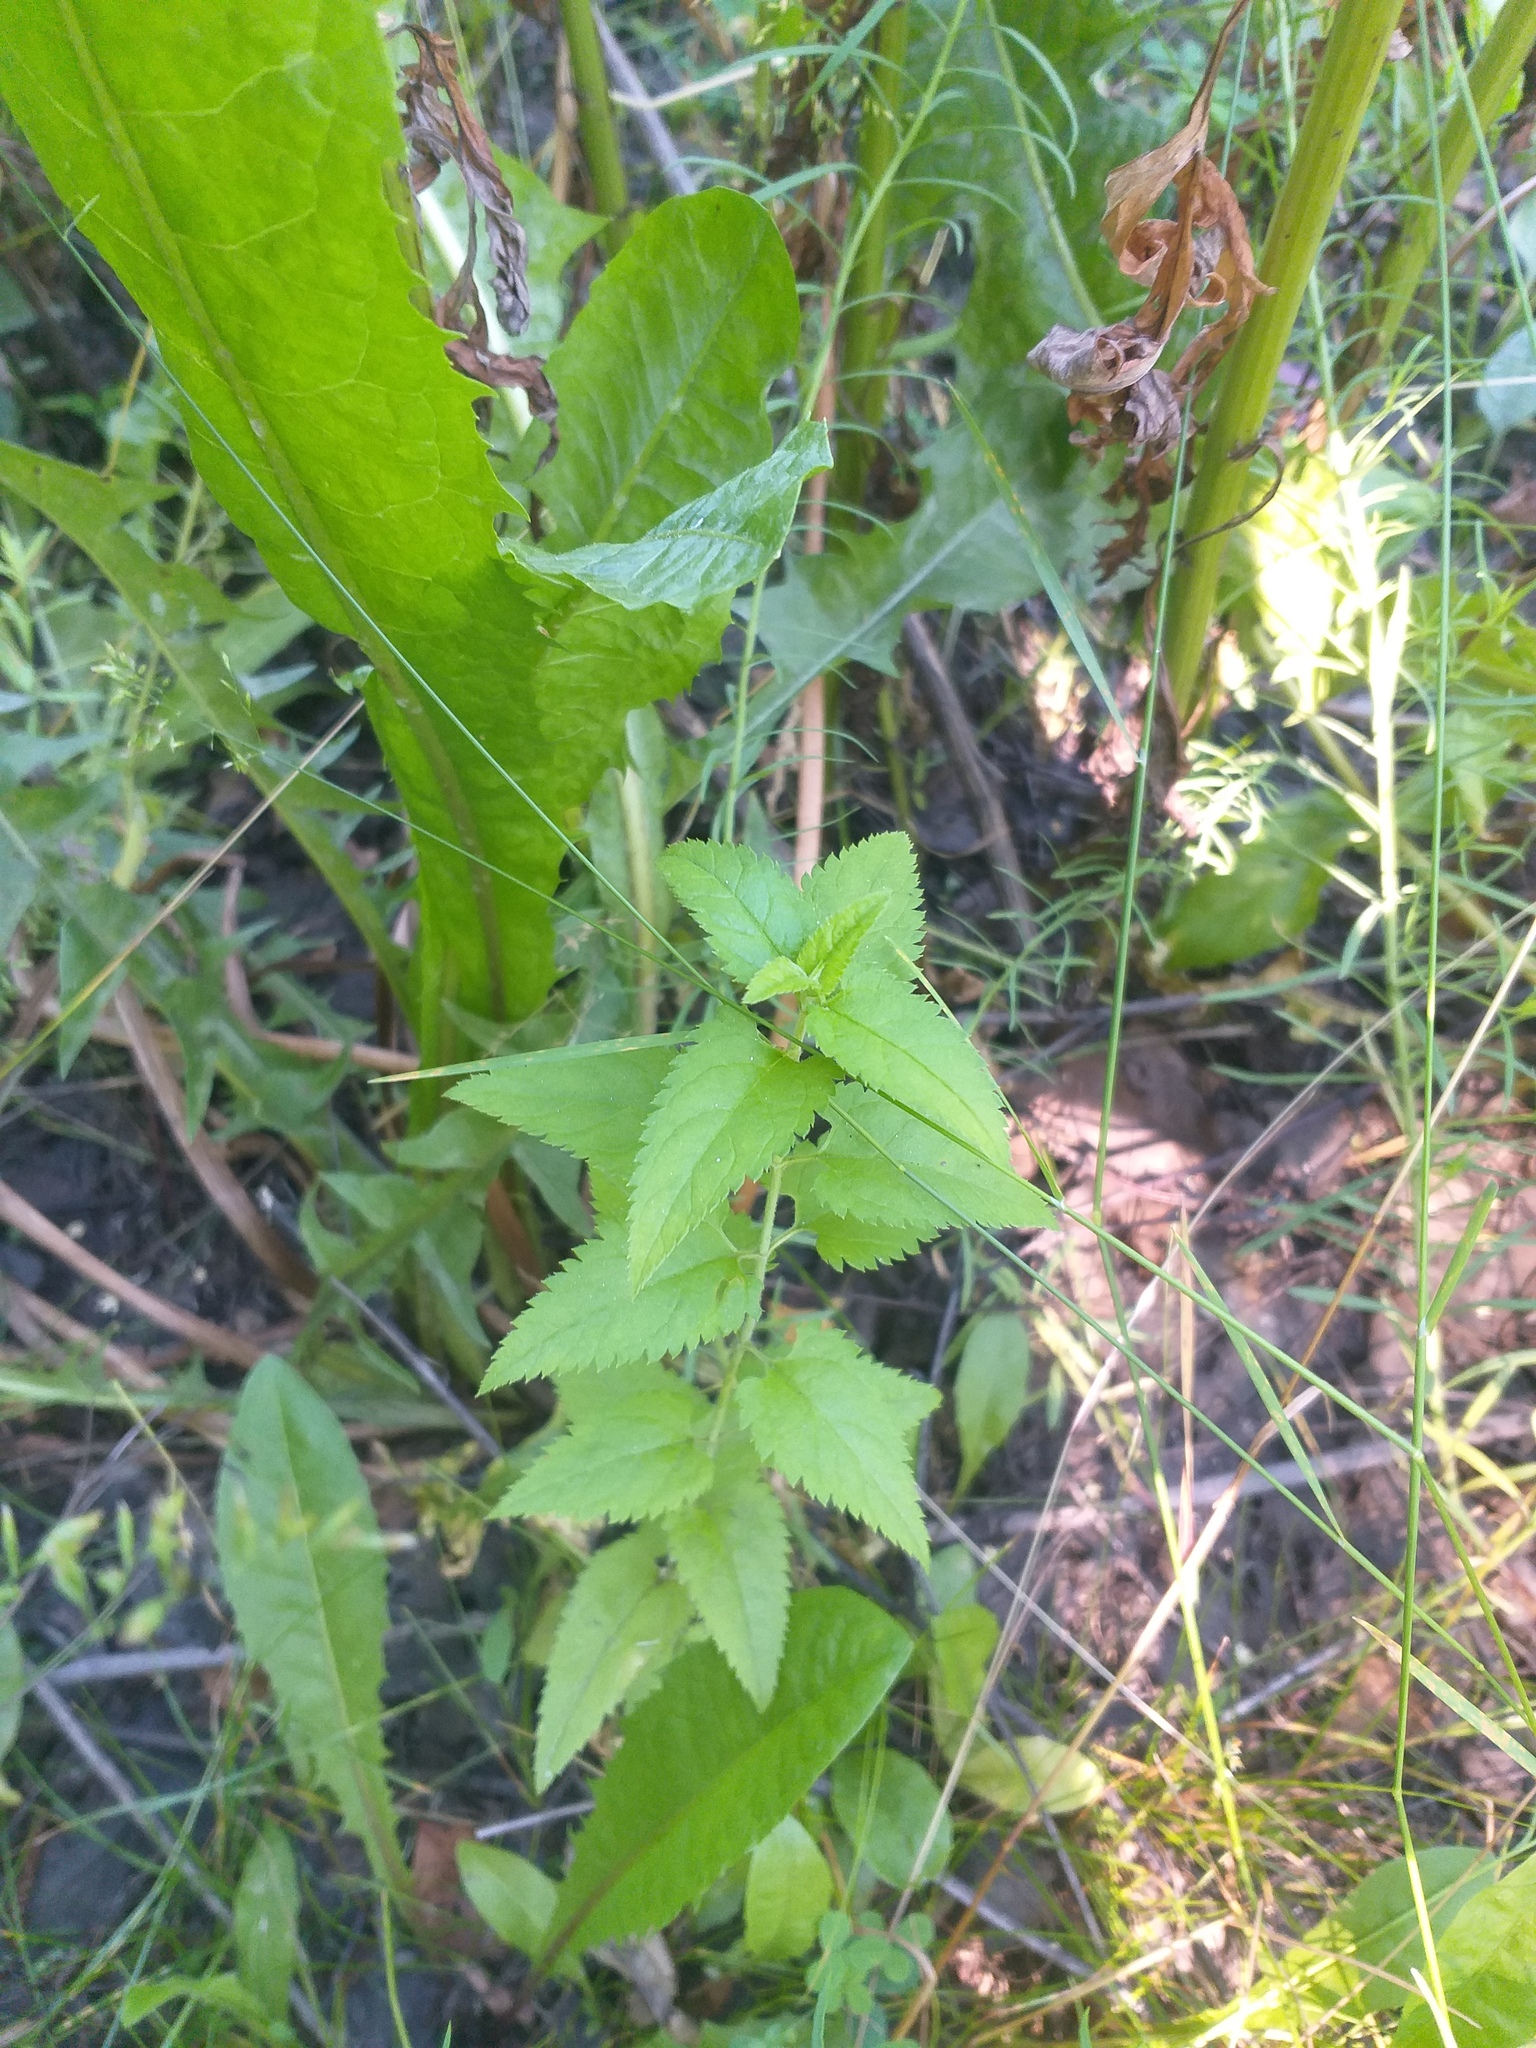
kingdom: Plantae
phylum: Tracheophyta
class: Magnoliopsida
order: Lamiales
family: Plantaginaceae
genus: Veronica
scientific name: Veronica longifolia
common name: Garden speedwell
